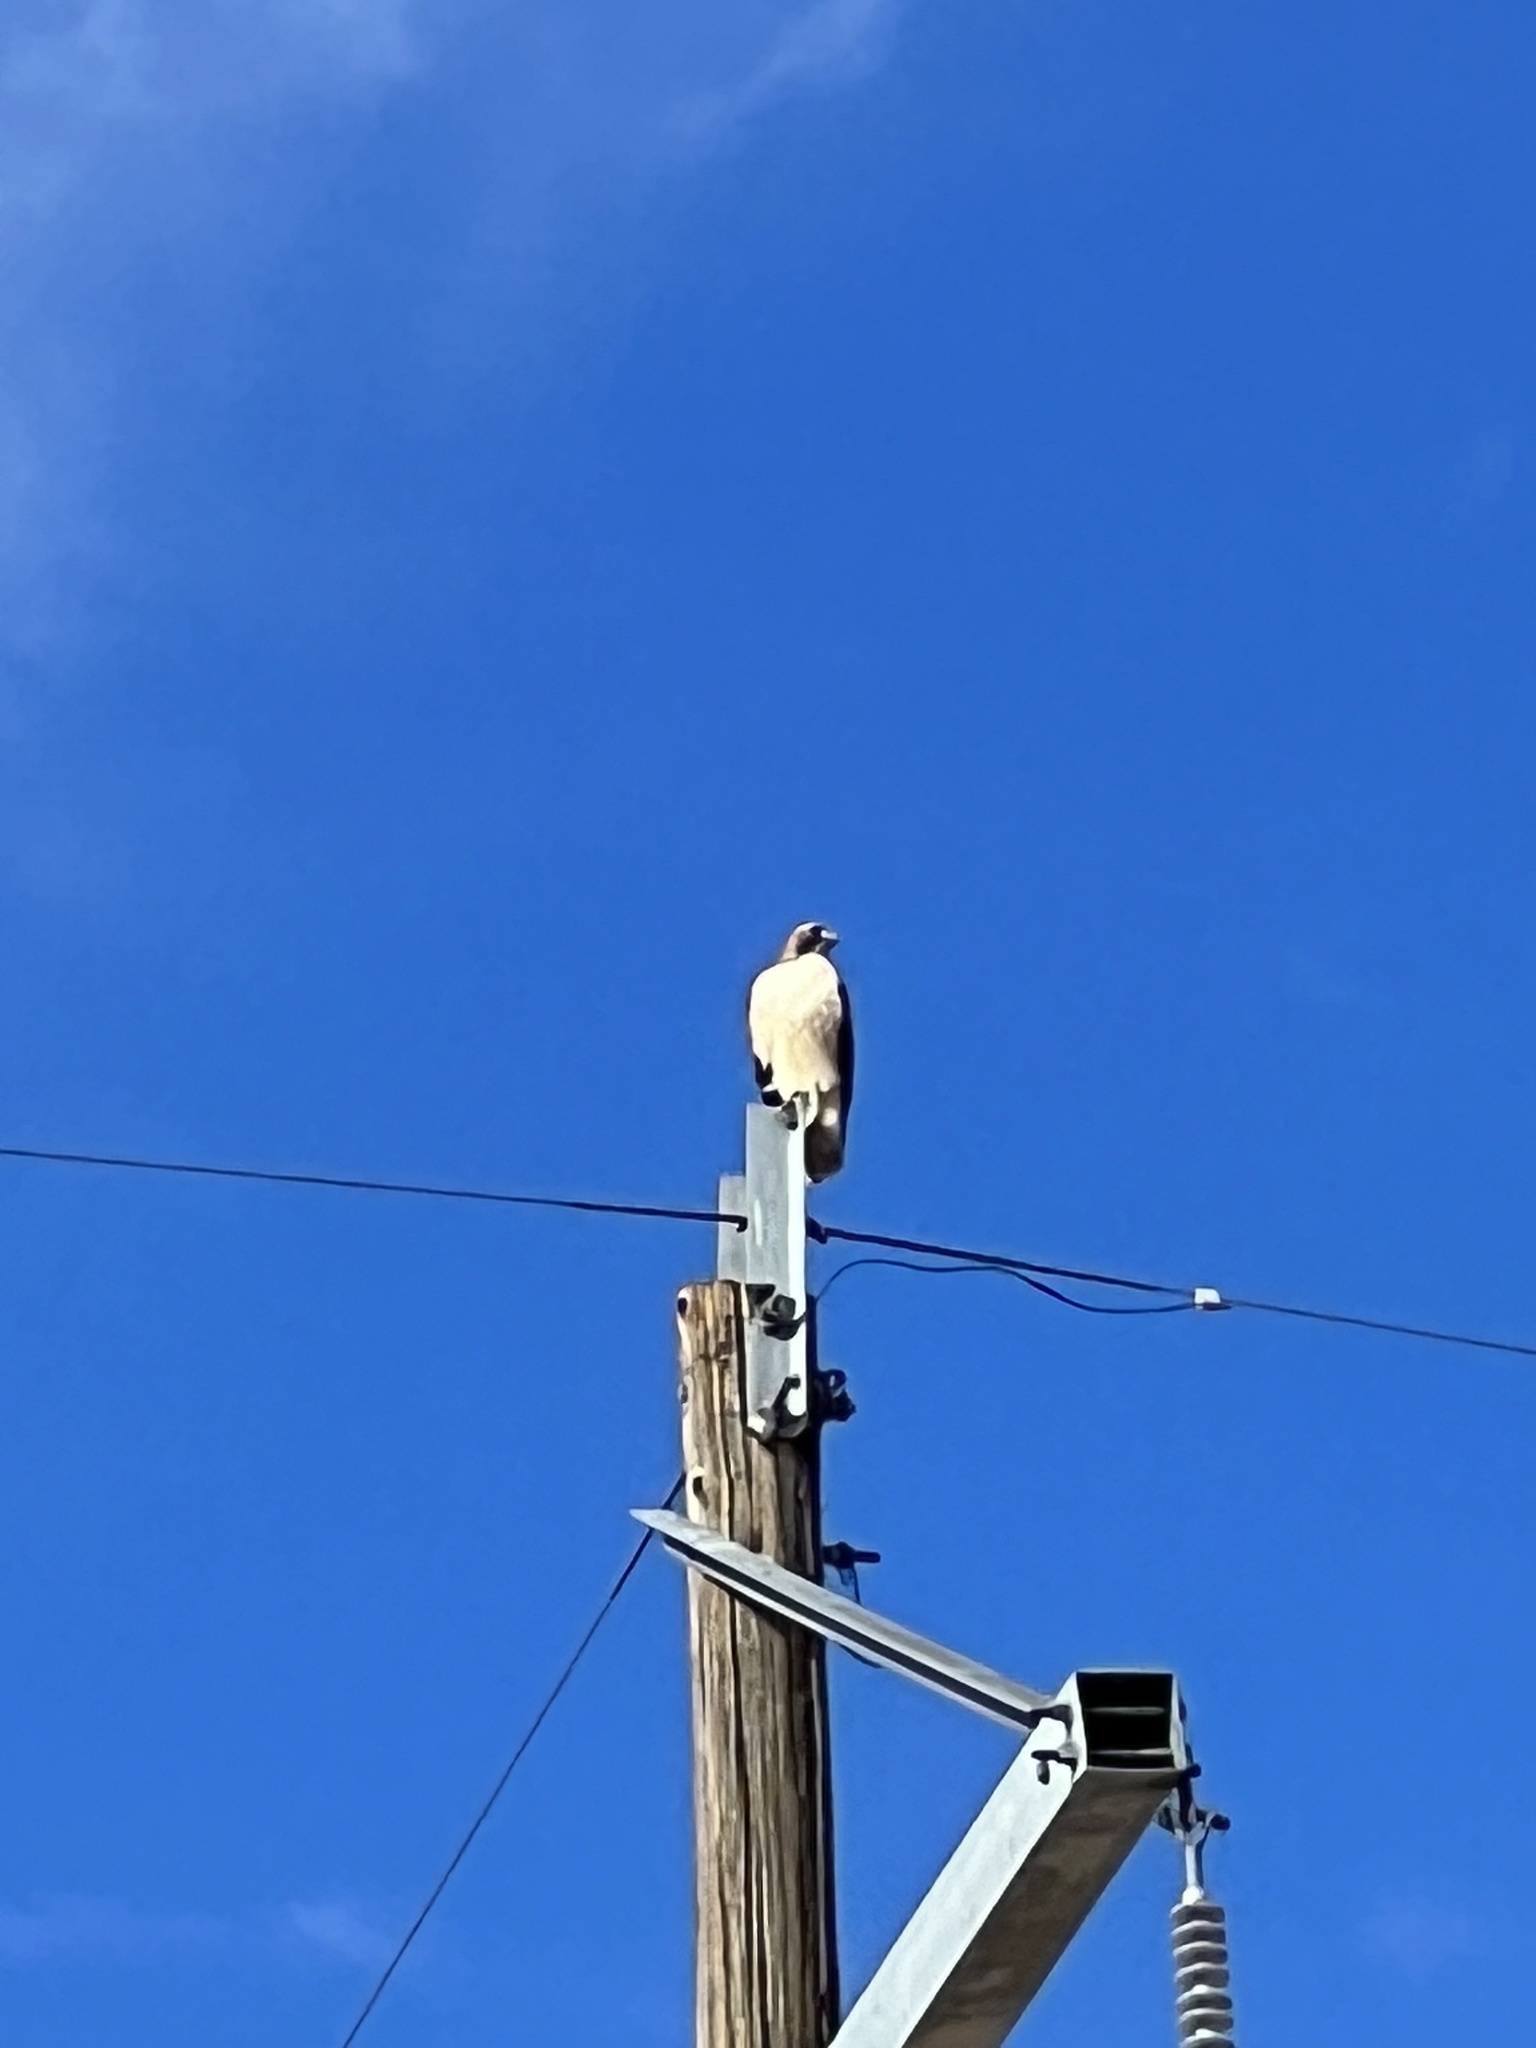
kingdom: Animalia
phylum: Chordata
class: Aves
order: Accipitriformes
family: Accipitridae
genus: Buteo
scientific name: Buteo jamaicensis
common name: Red-tailed hawk
